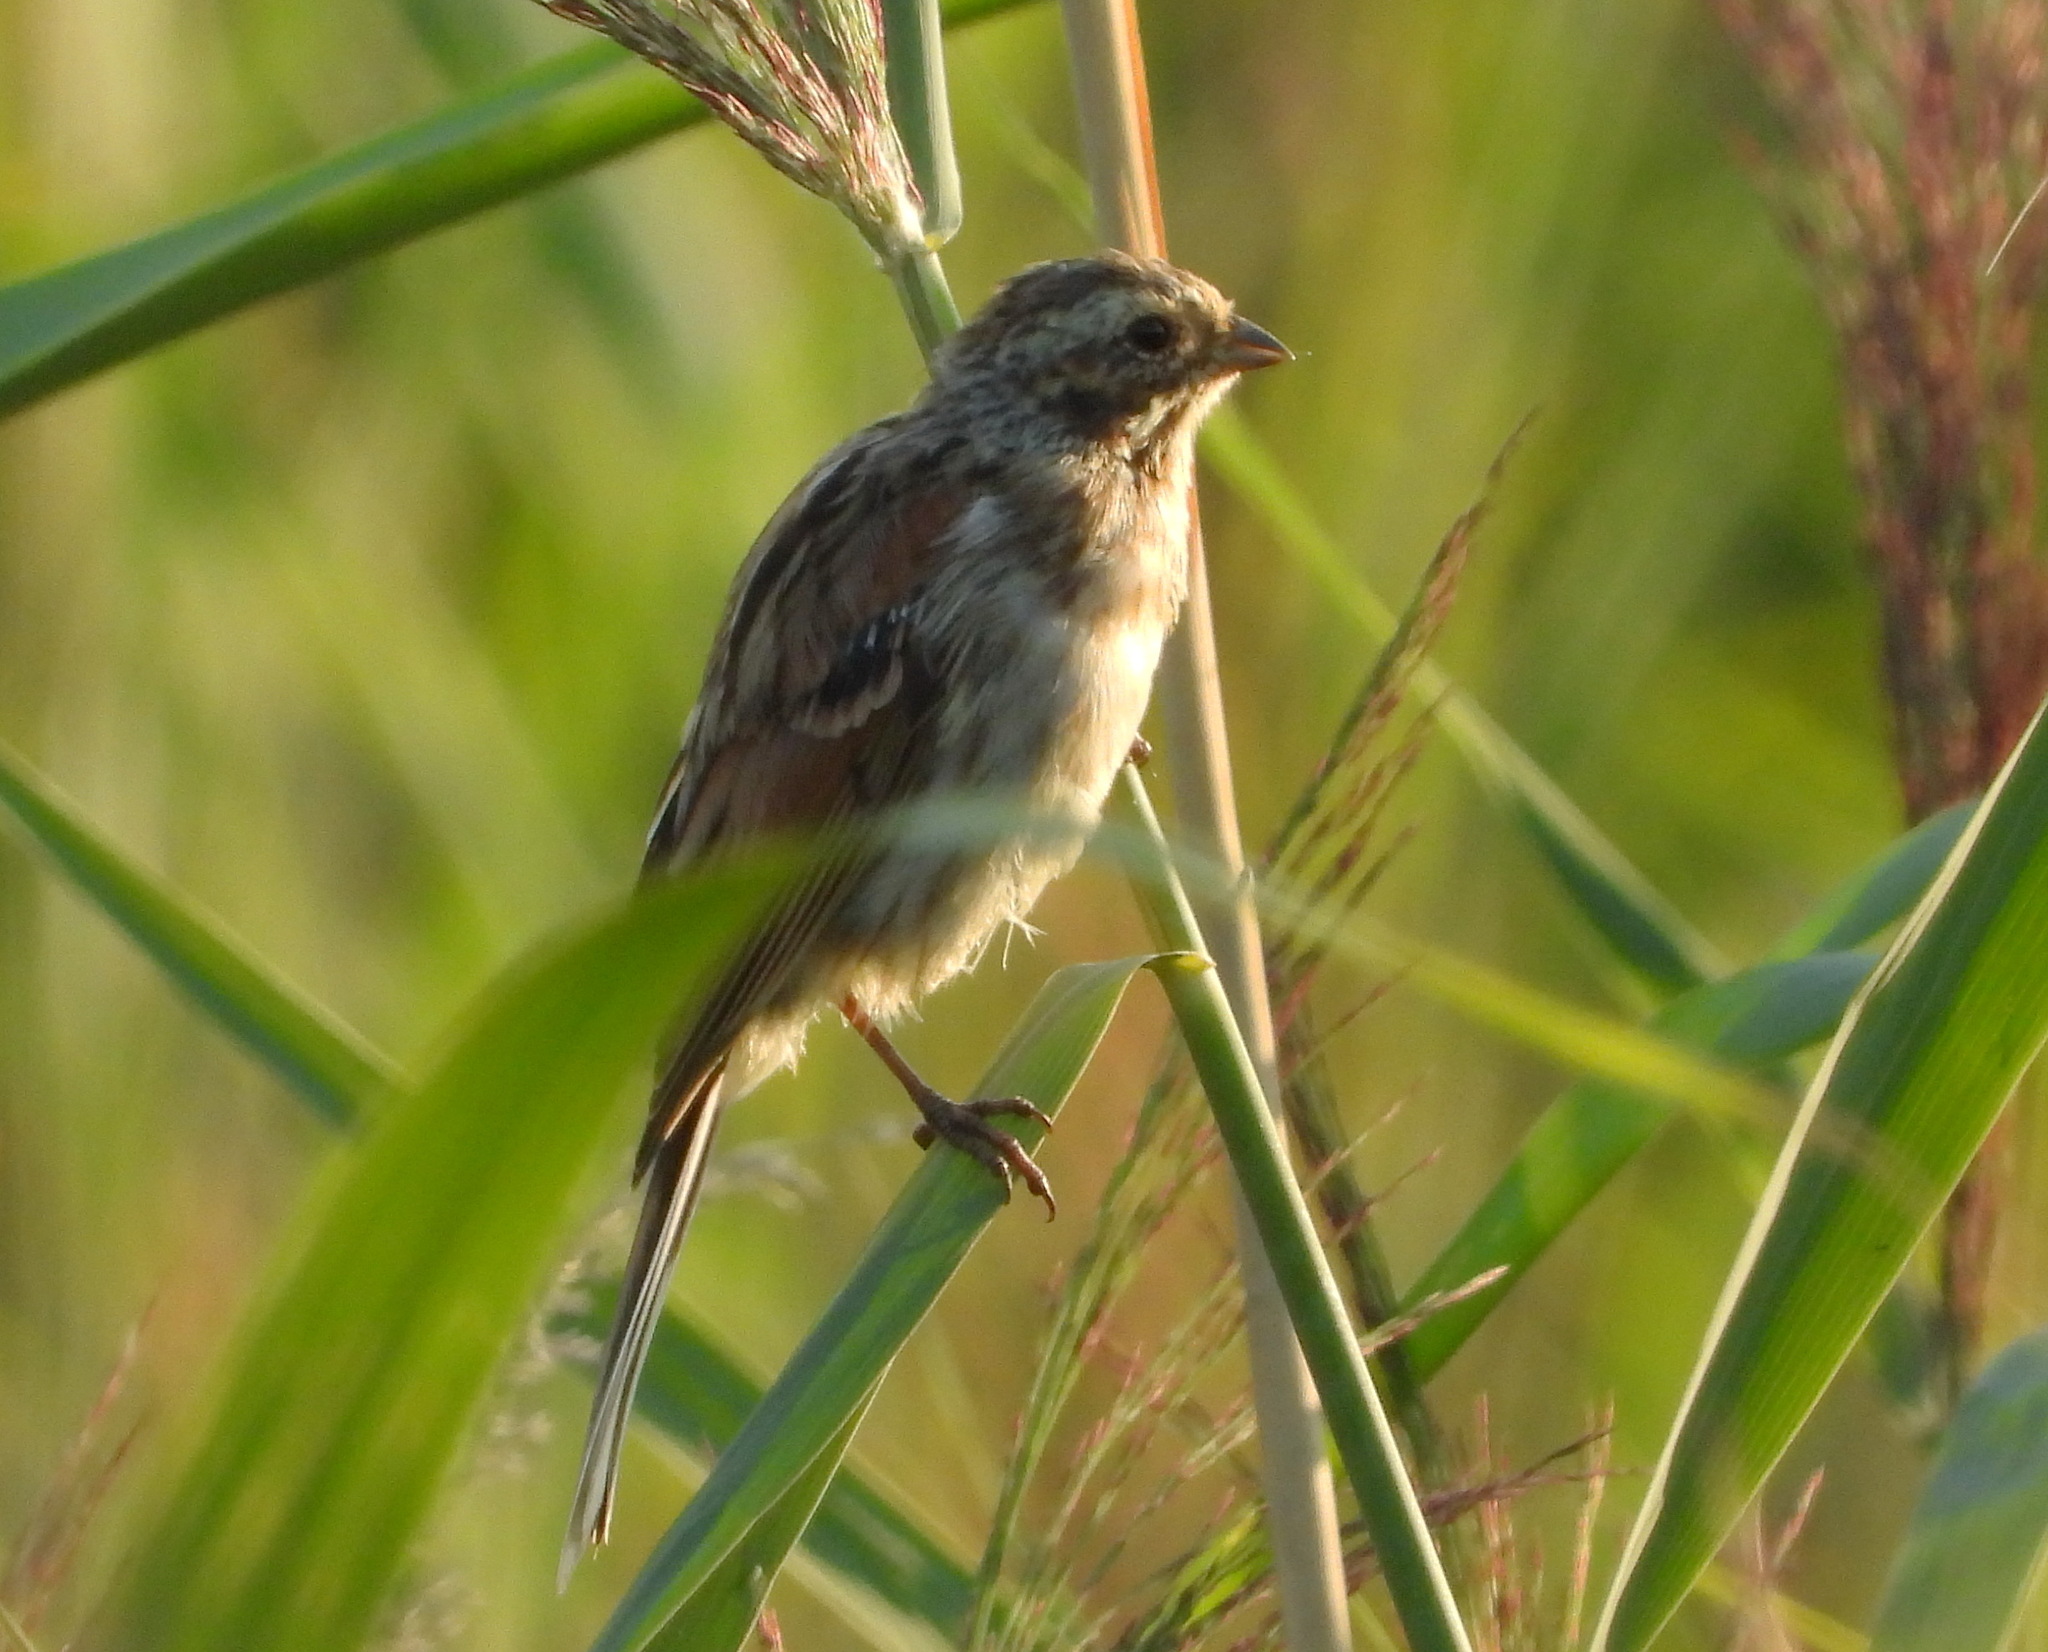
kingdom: Animalia
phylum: Chordata
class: Aves
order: Passeriformes
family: Emberizidae
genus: Emberiza
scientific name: Emberiza schoeniclus
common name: Reed bunting
